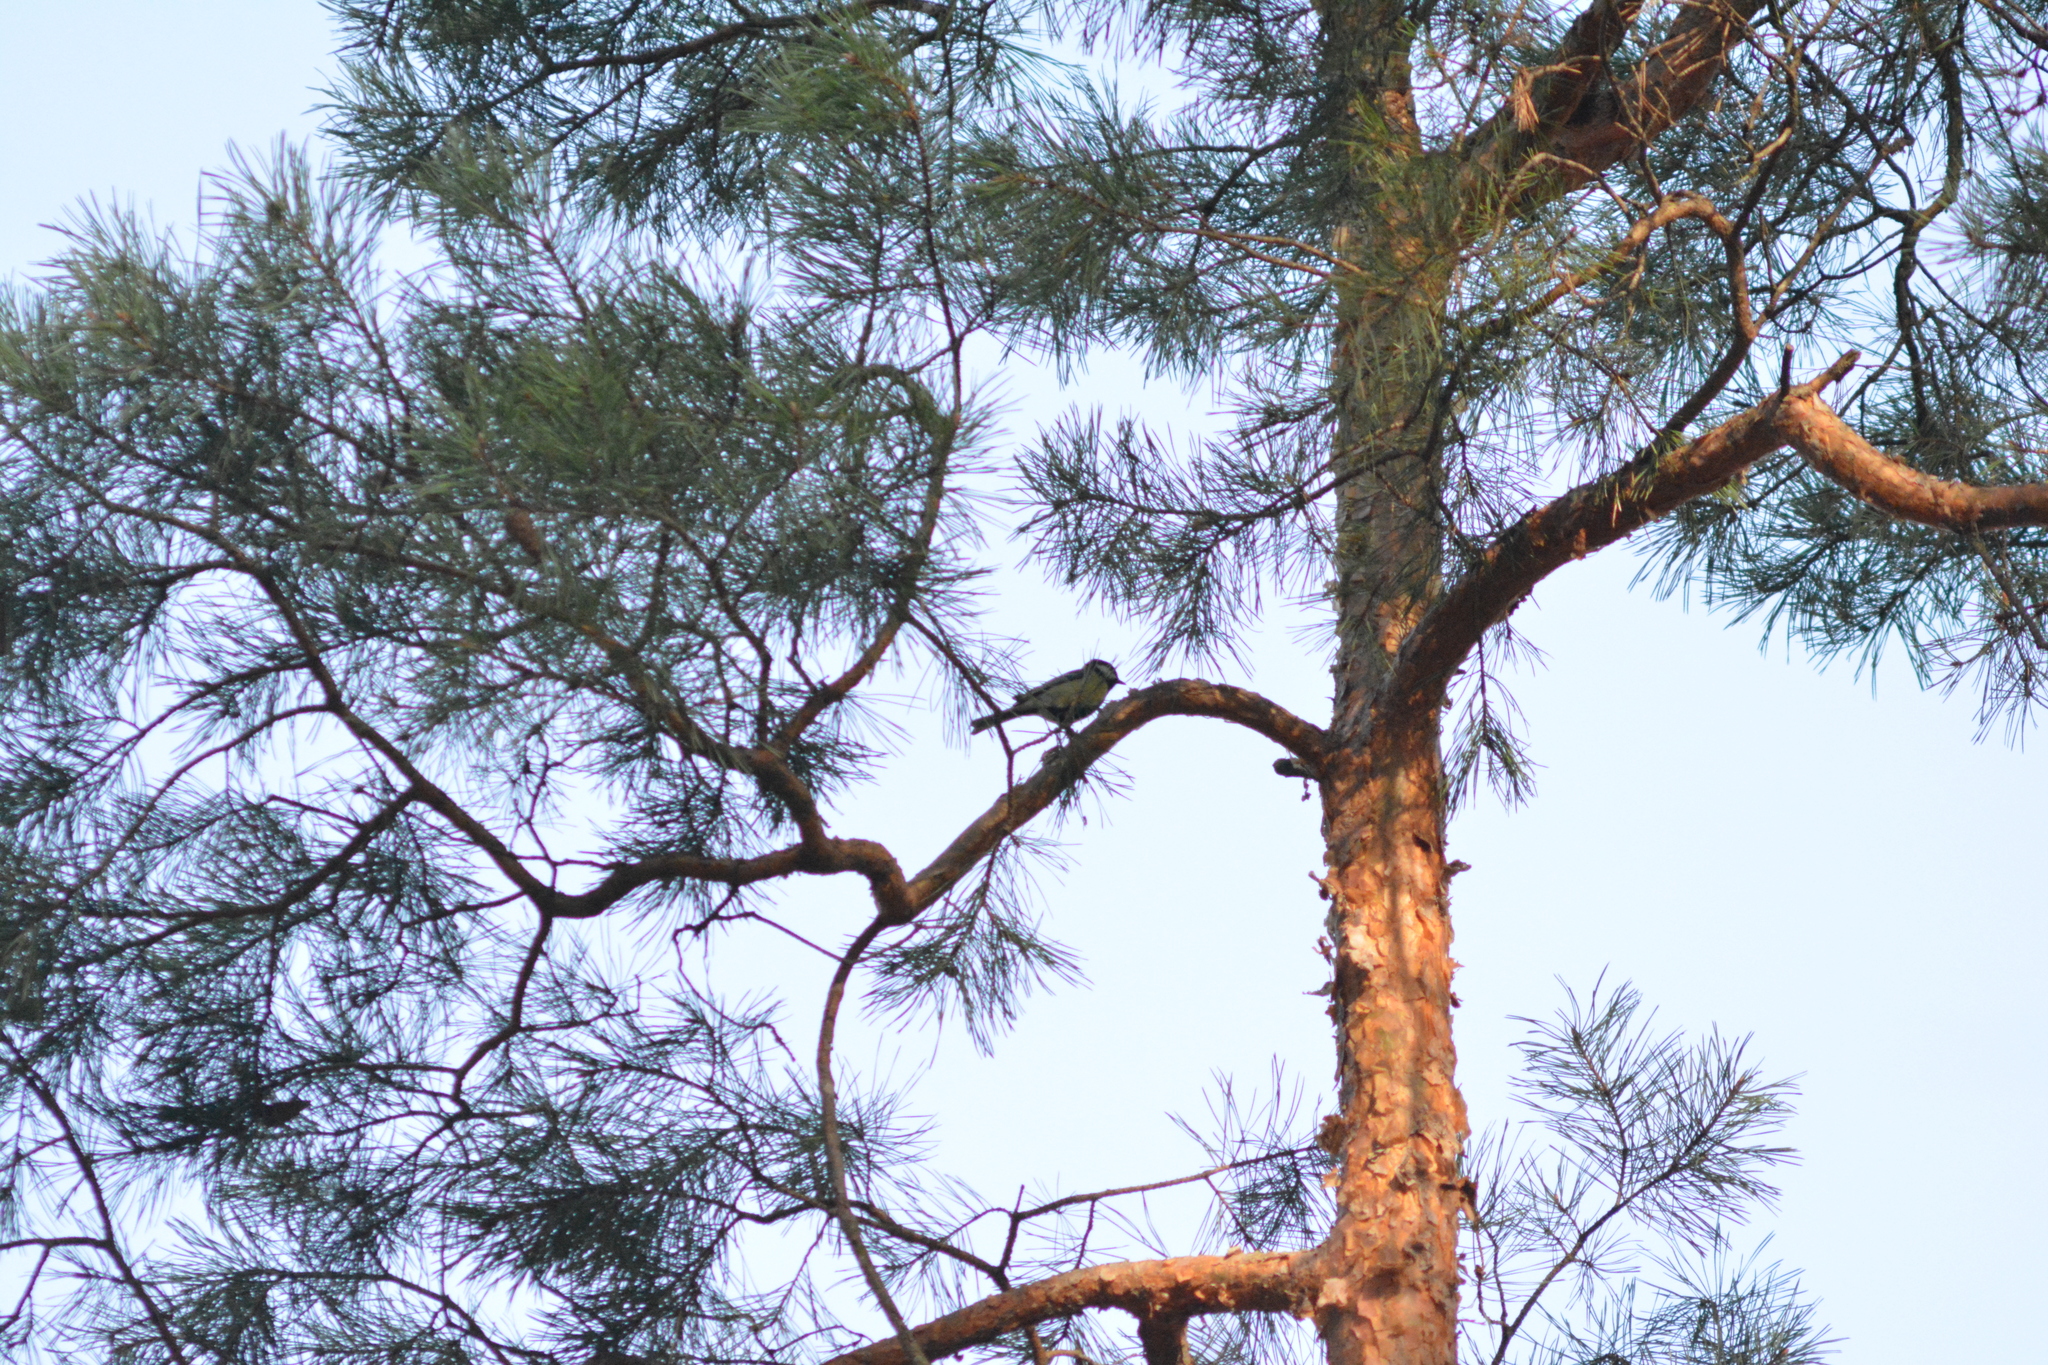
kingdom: Animalia
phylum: Chordata
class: Aves
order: Passeriformes
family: Paridae
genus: Parus
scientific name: Parus major
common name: Great tit
